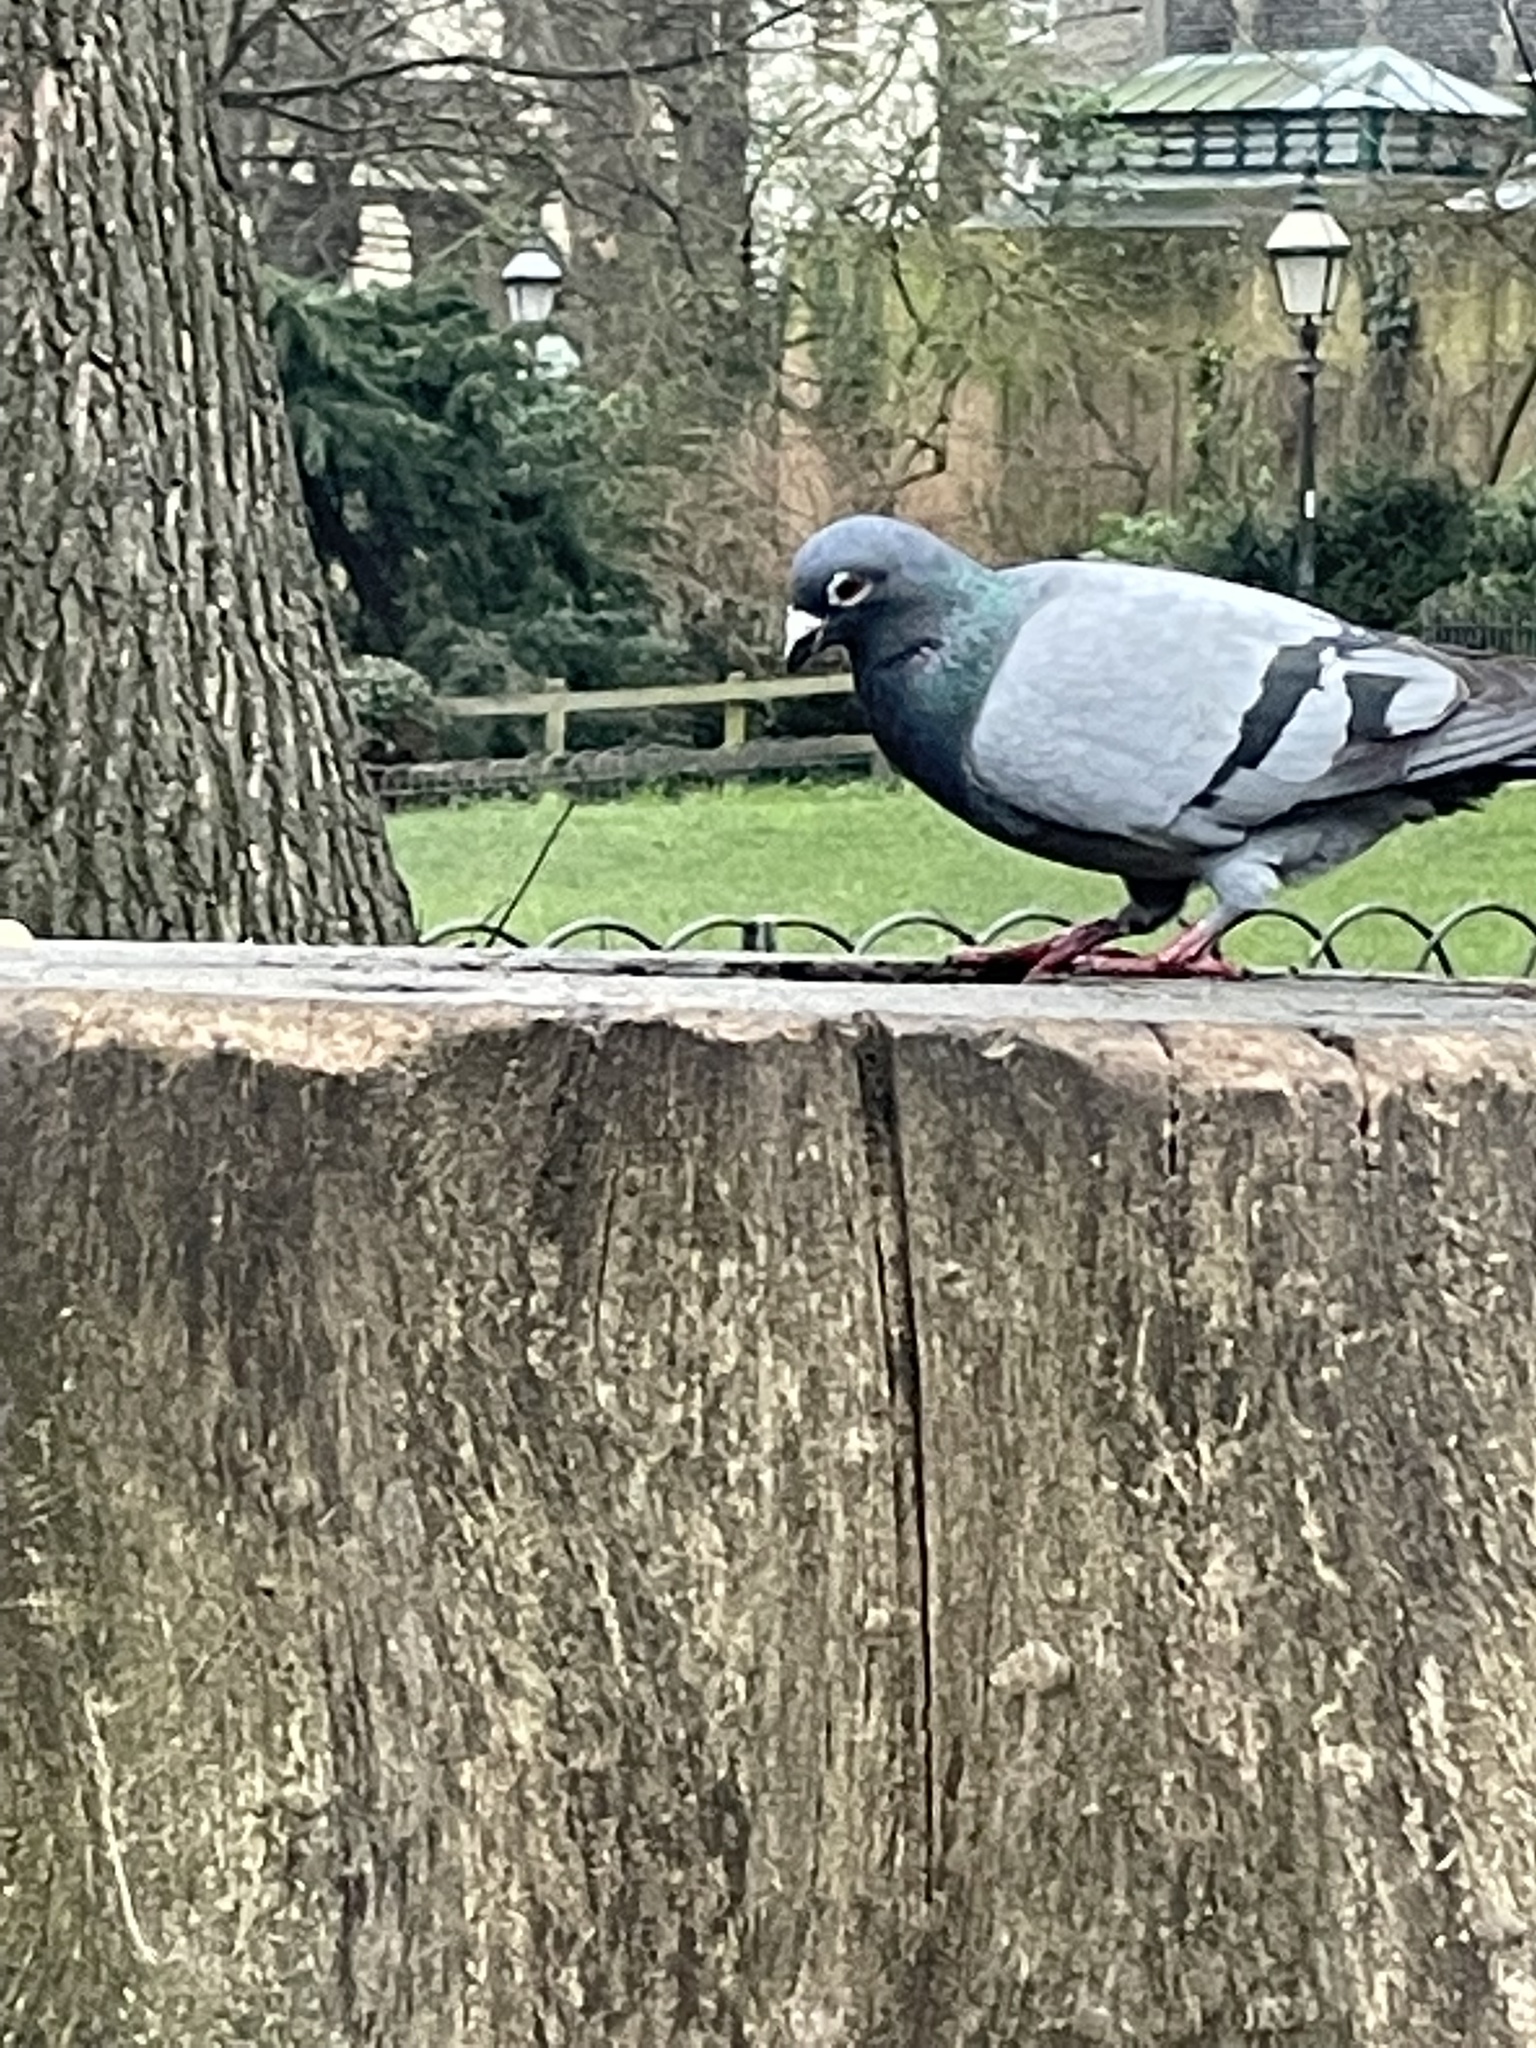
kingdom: Animalia
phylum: Chordata
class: Aves
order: Columbiformes
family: Columbidae
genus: Columba
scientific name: Columba livia
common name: Rock pigeon
